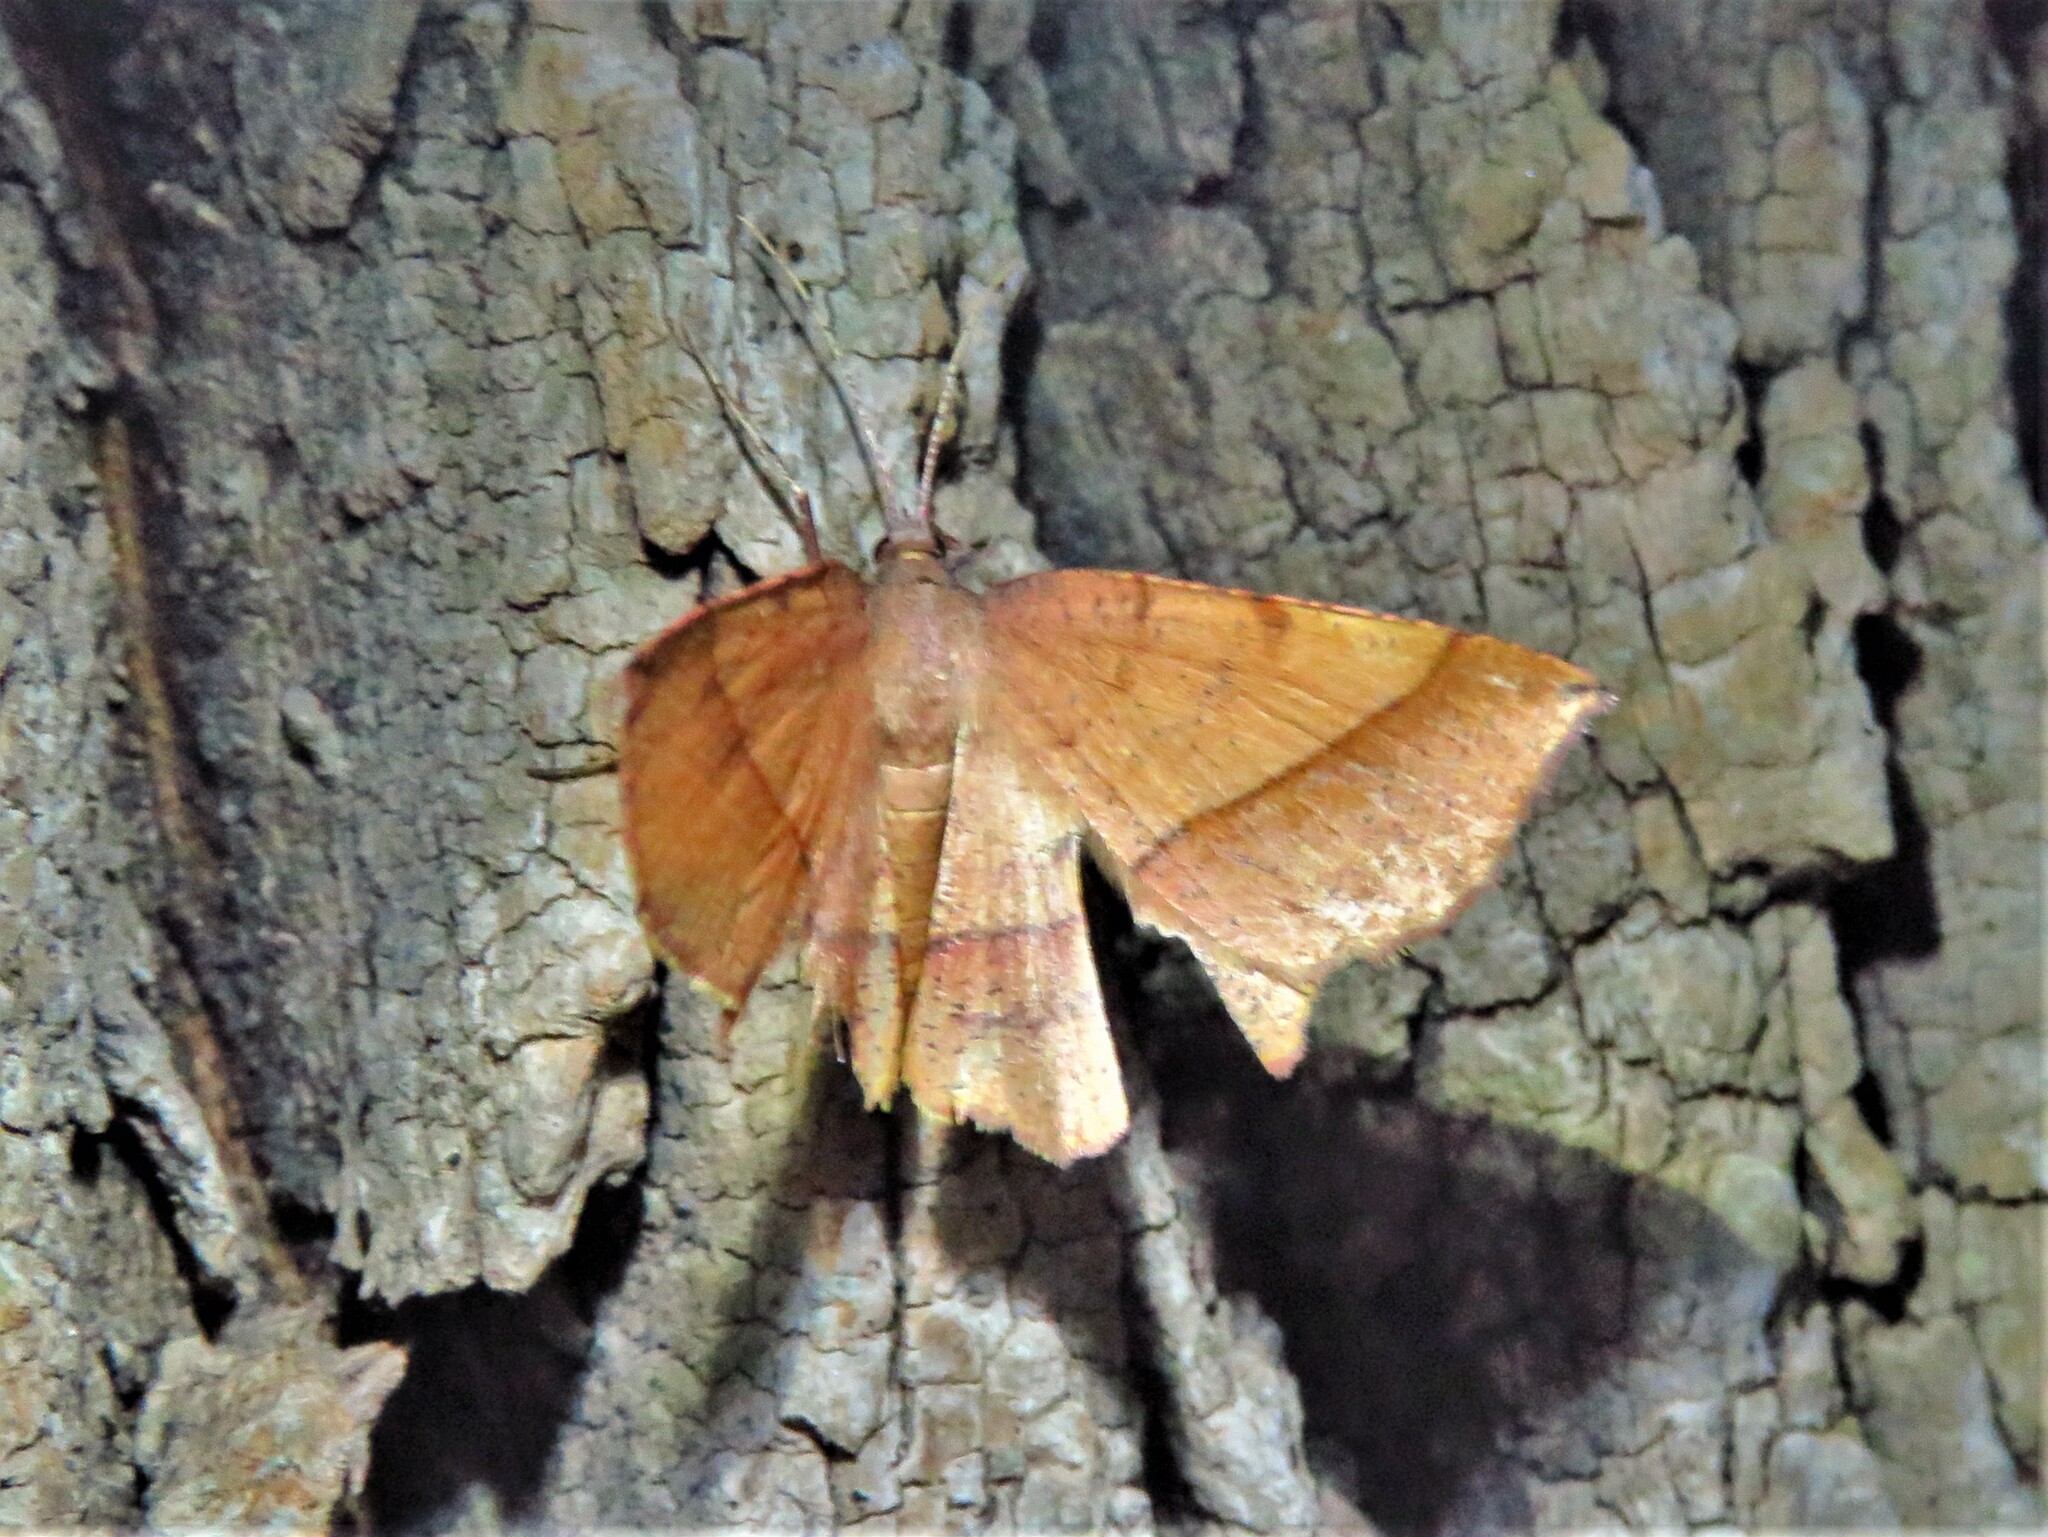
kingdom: Animalia
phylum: Arthropoda
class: Insecta
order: Lepidoptera
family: Geometridae
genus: Erastria
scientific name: Erastria cruentaria
